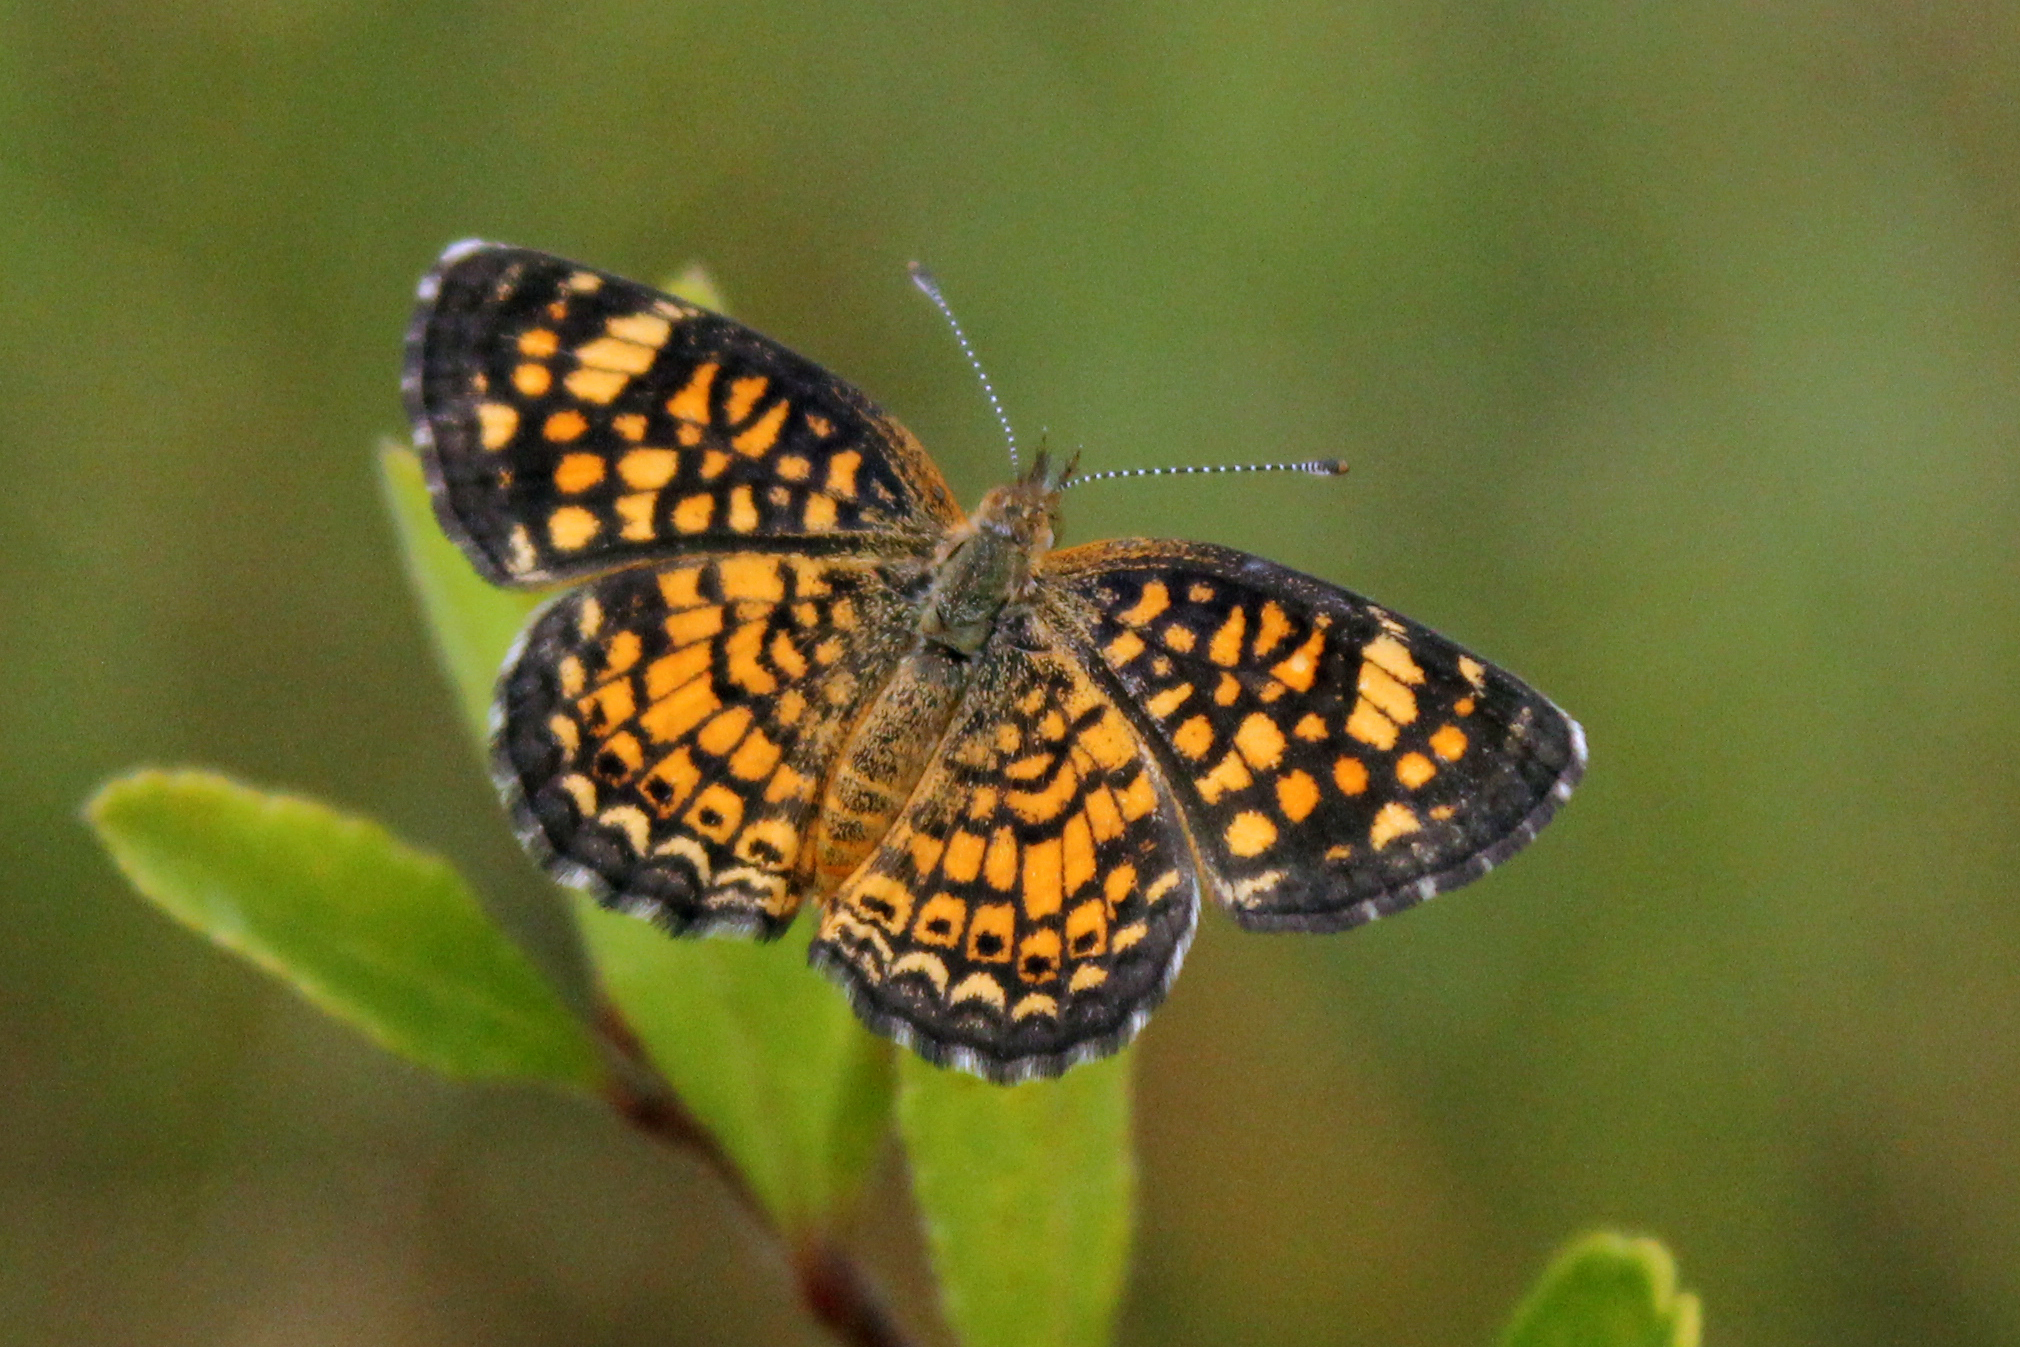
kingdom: Animalia
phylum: Arthropoda
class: Insecta
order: Lepidoptera
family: Nymphalidae
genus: Phyciodes
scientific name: Phyciodes vesta
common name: Vesta crescent
